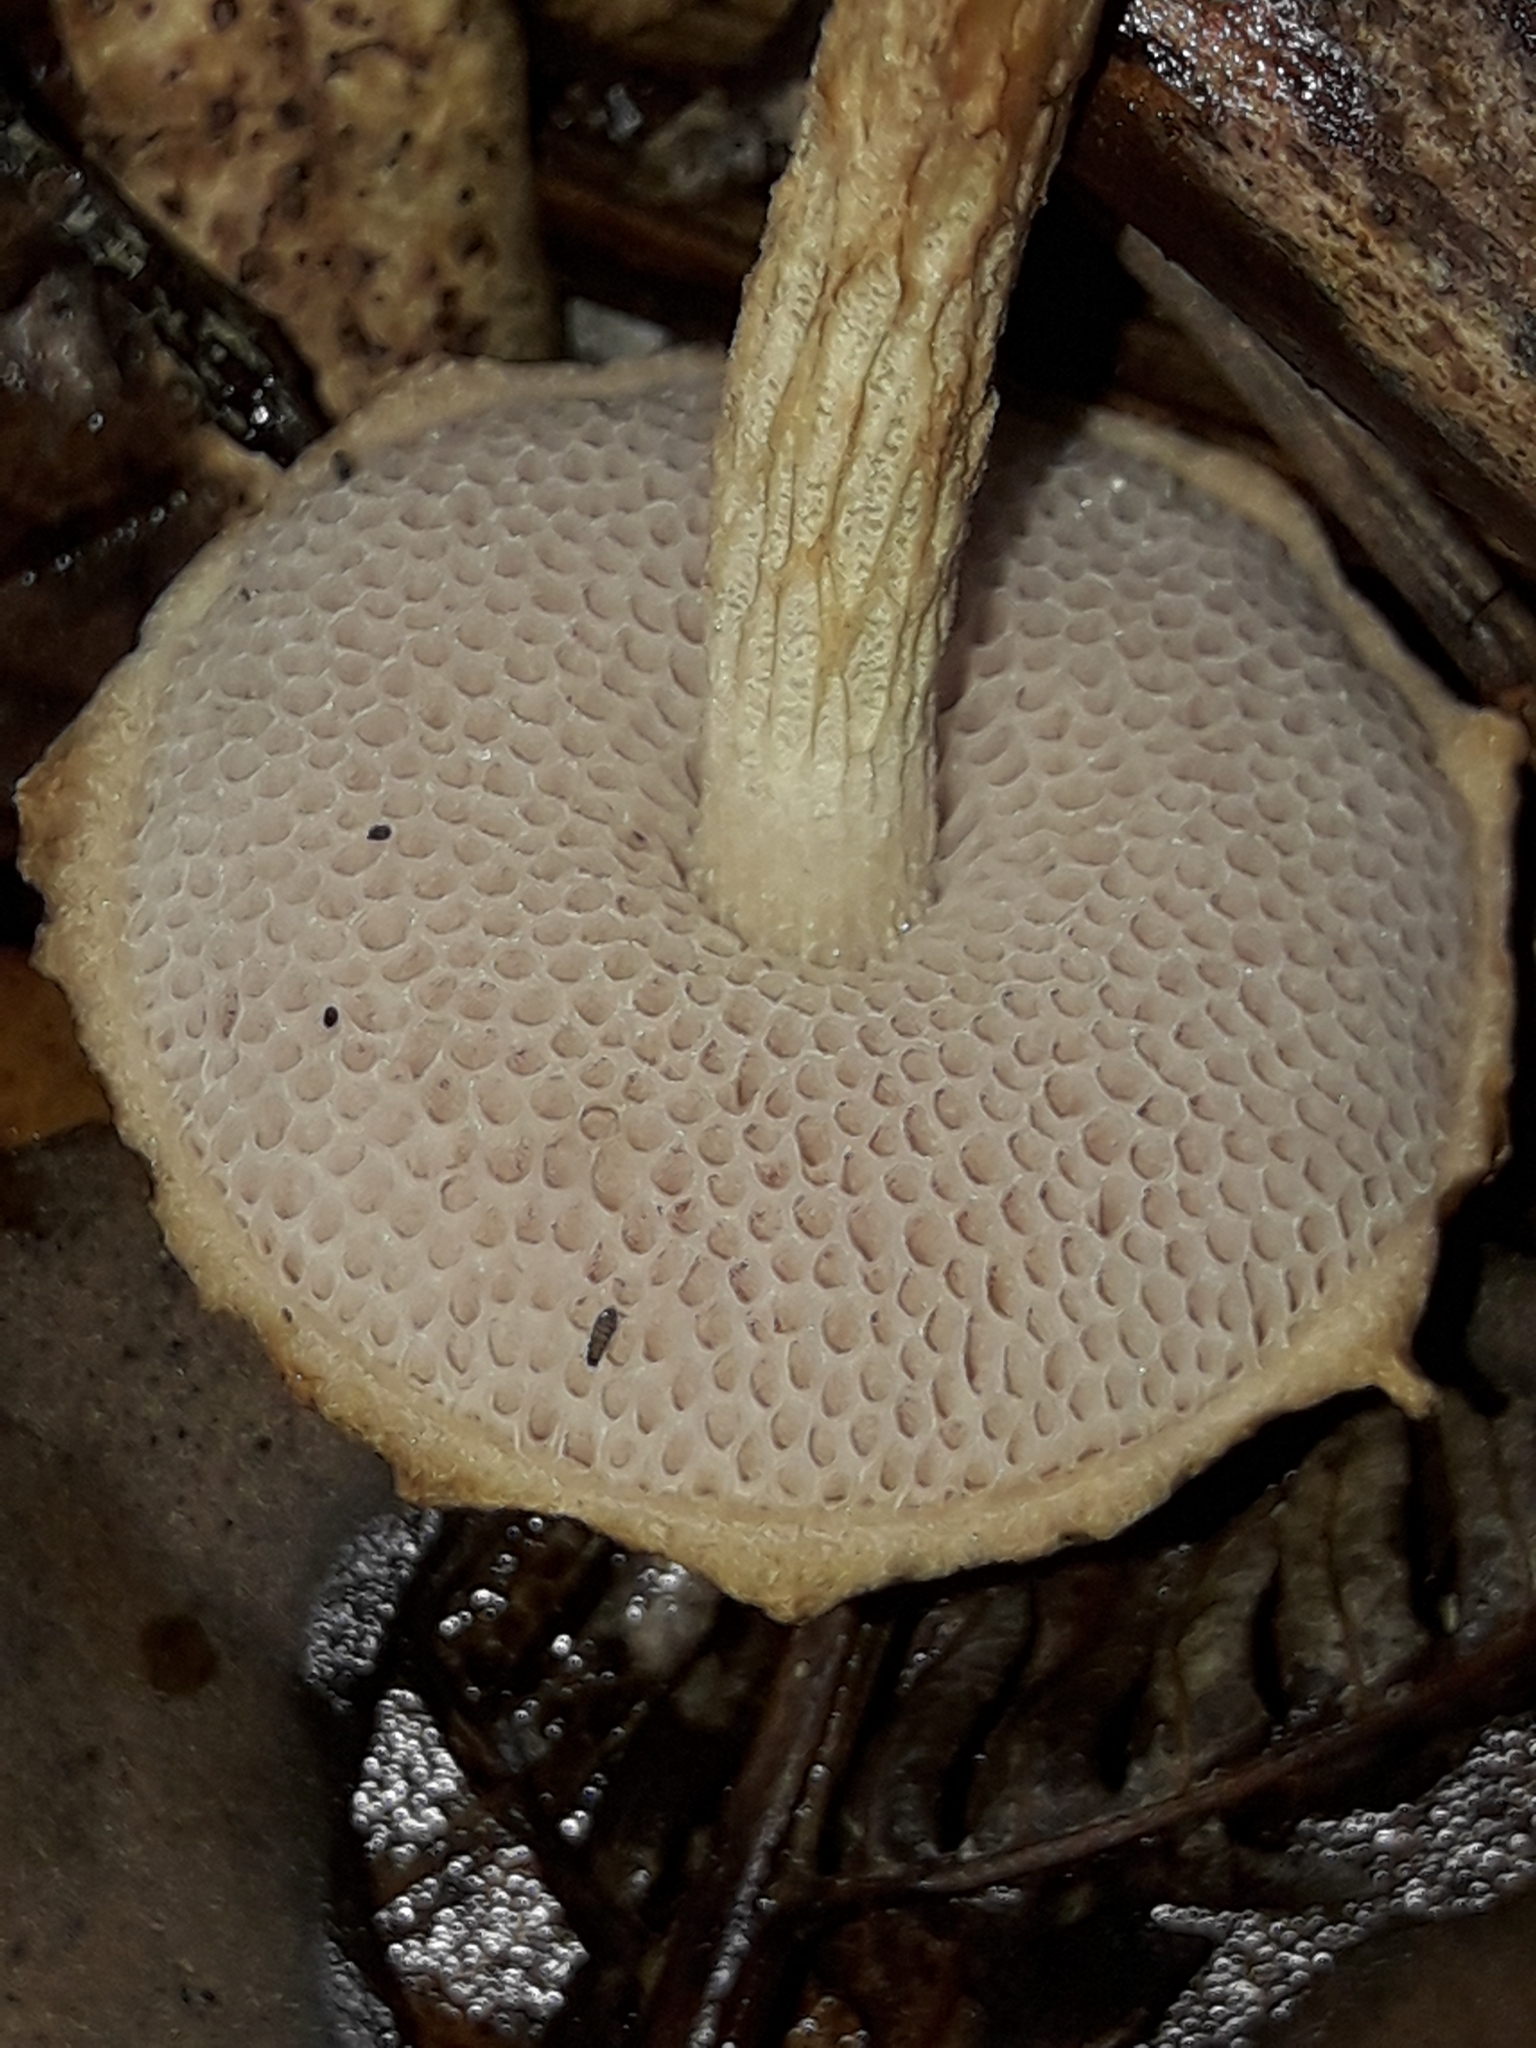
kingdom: Fungi
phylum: Basidiomycota
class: Agaricomycetes
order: Boletales
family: Boletaceae
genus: Austroboletus
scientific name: Austroboletus lacunosus
